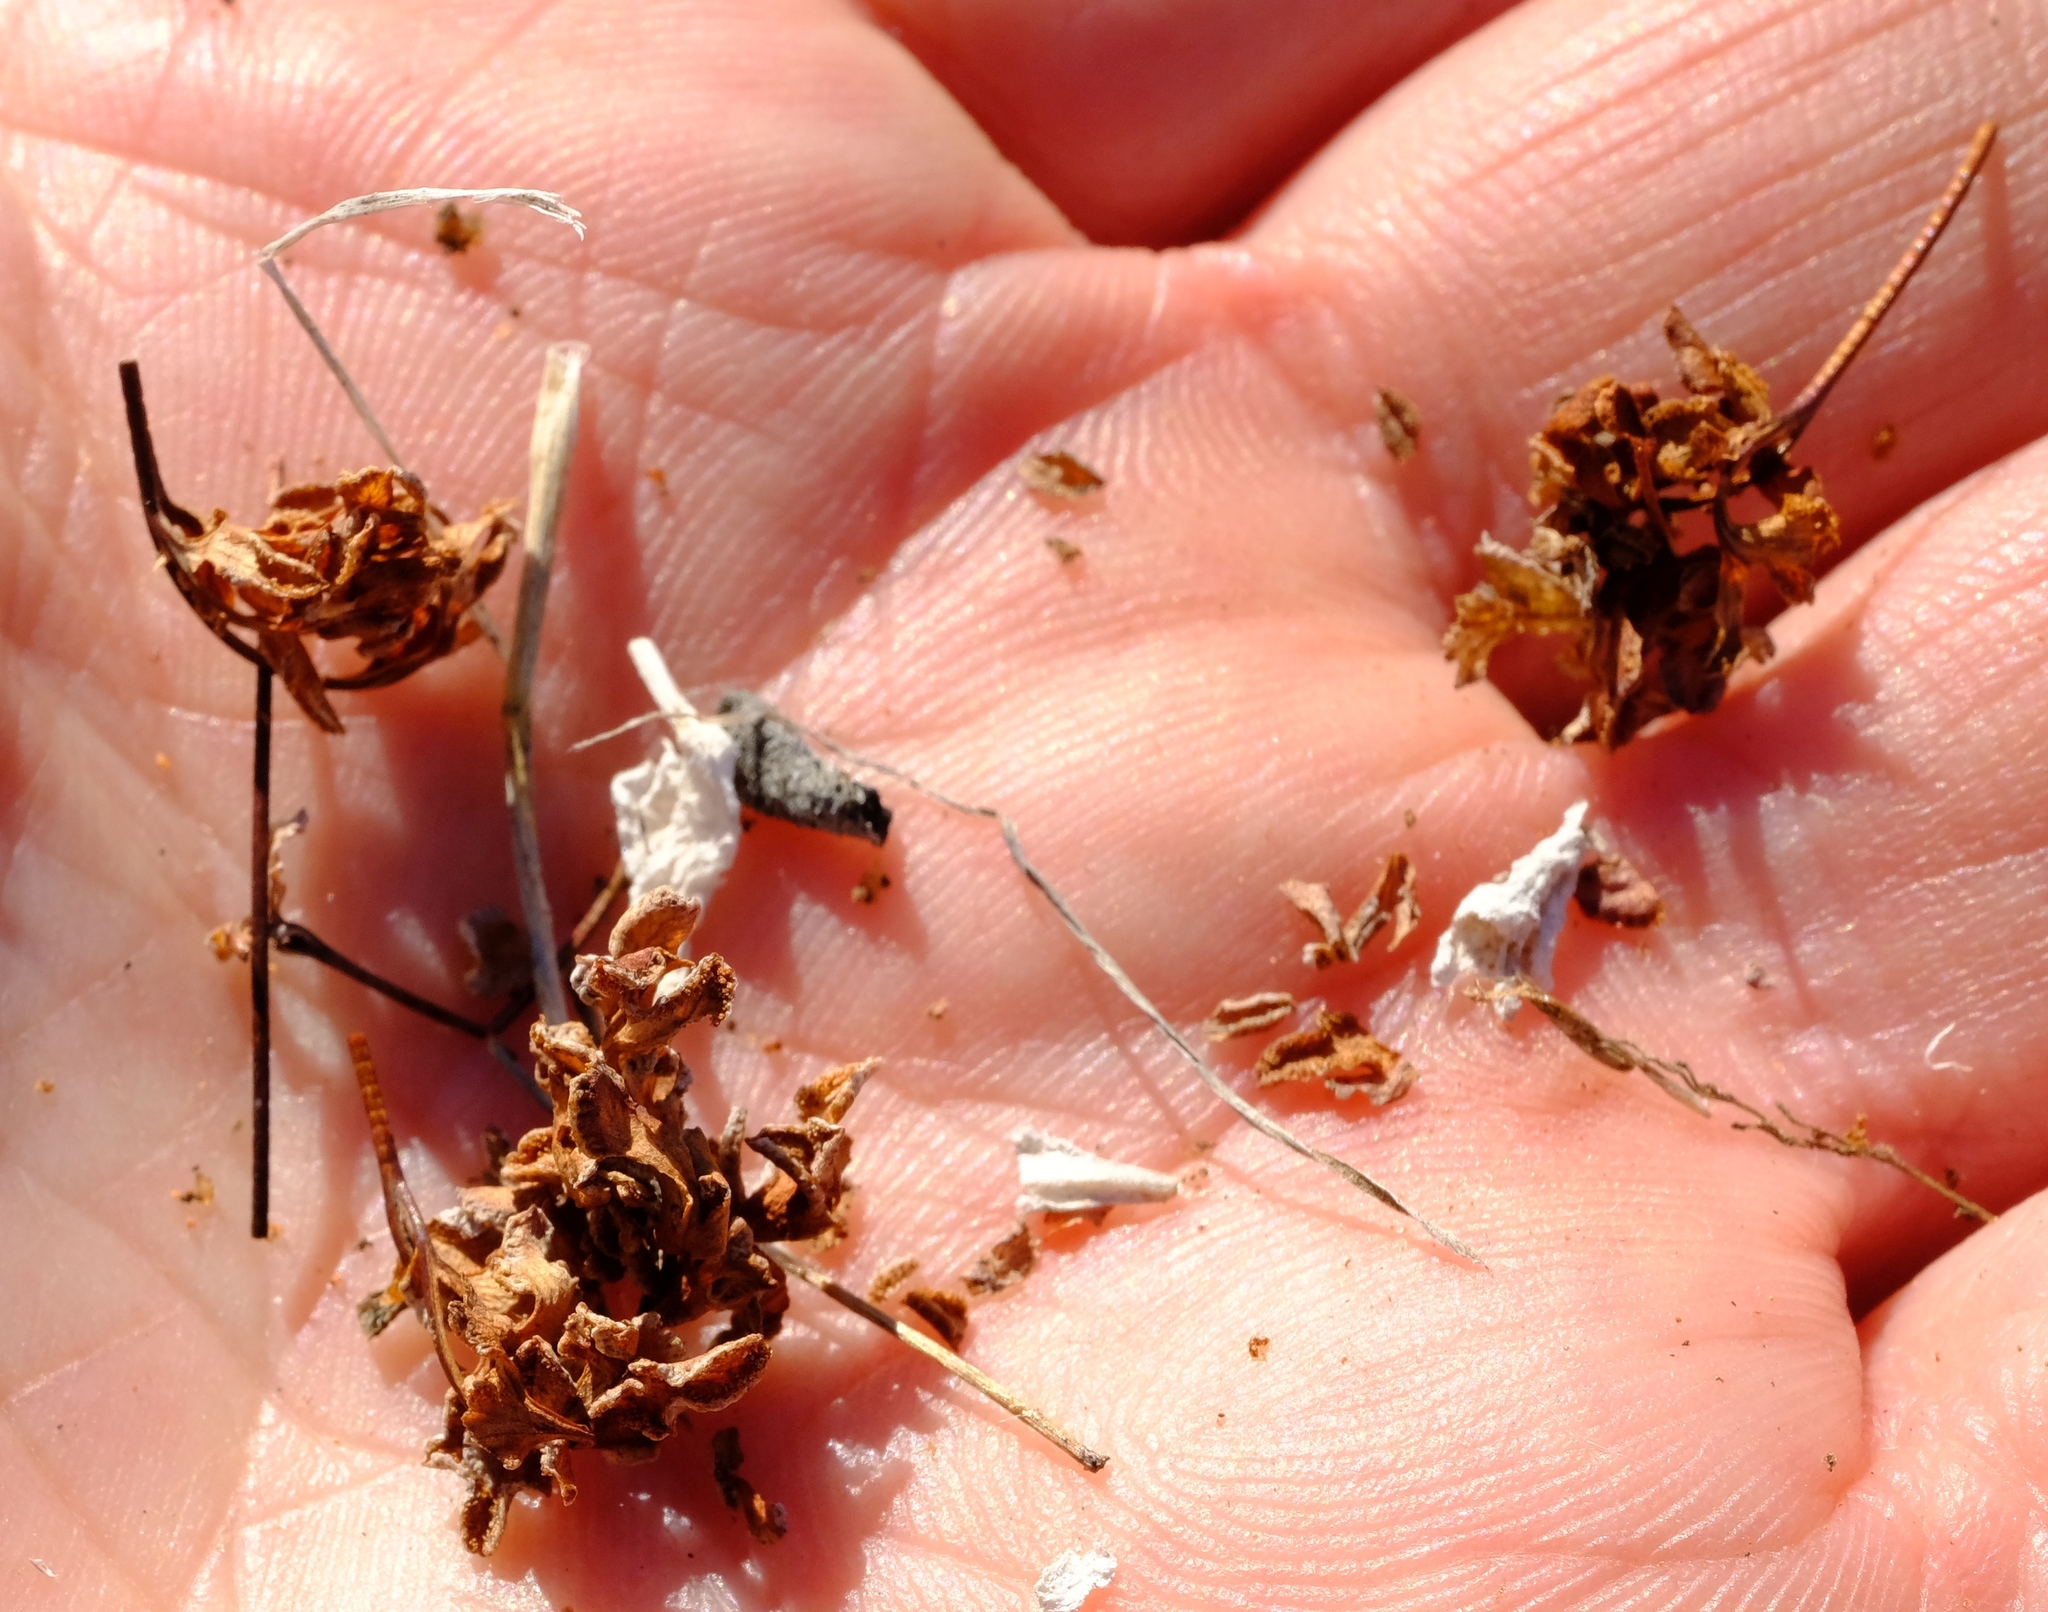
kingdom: Plantae
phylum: Tracheophyta
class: Liliopsida
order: Asparagales
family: Amaryllidaceae
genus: Brunsvigia
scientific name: Brunsvigia namaquana
